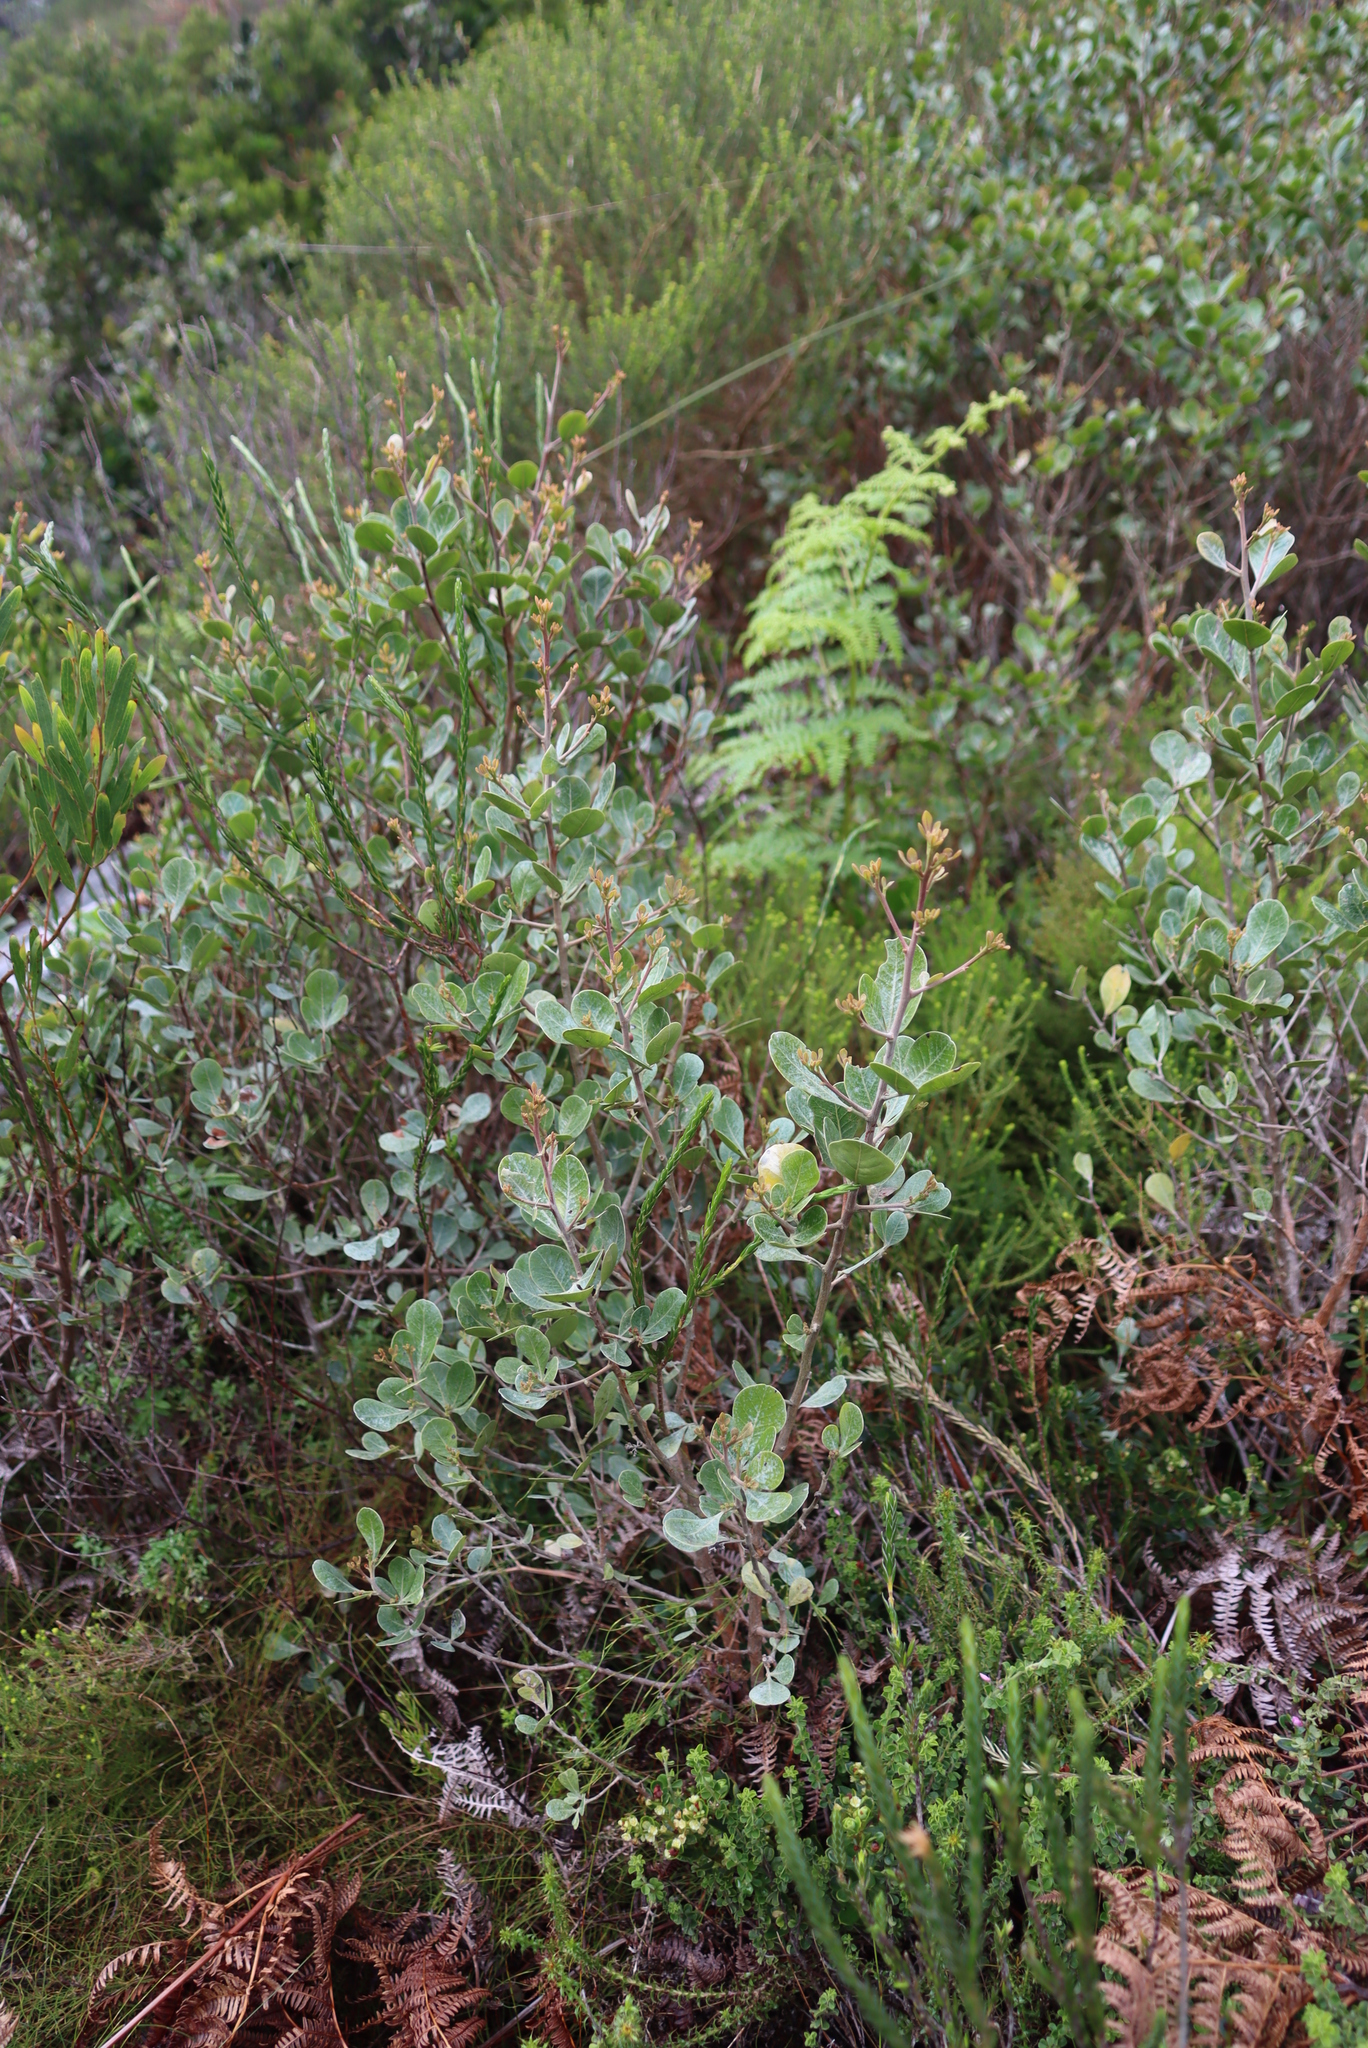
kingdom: Plantae
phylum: Tracheophyta
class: Magnoliopsida
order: Sapindales
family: Anacardiaceae
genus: Searsia
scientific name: Searsia lucida
